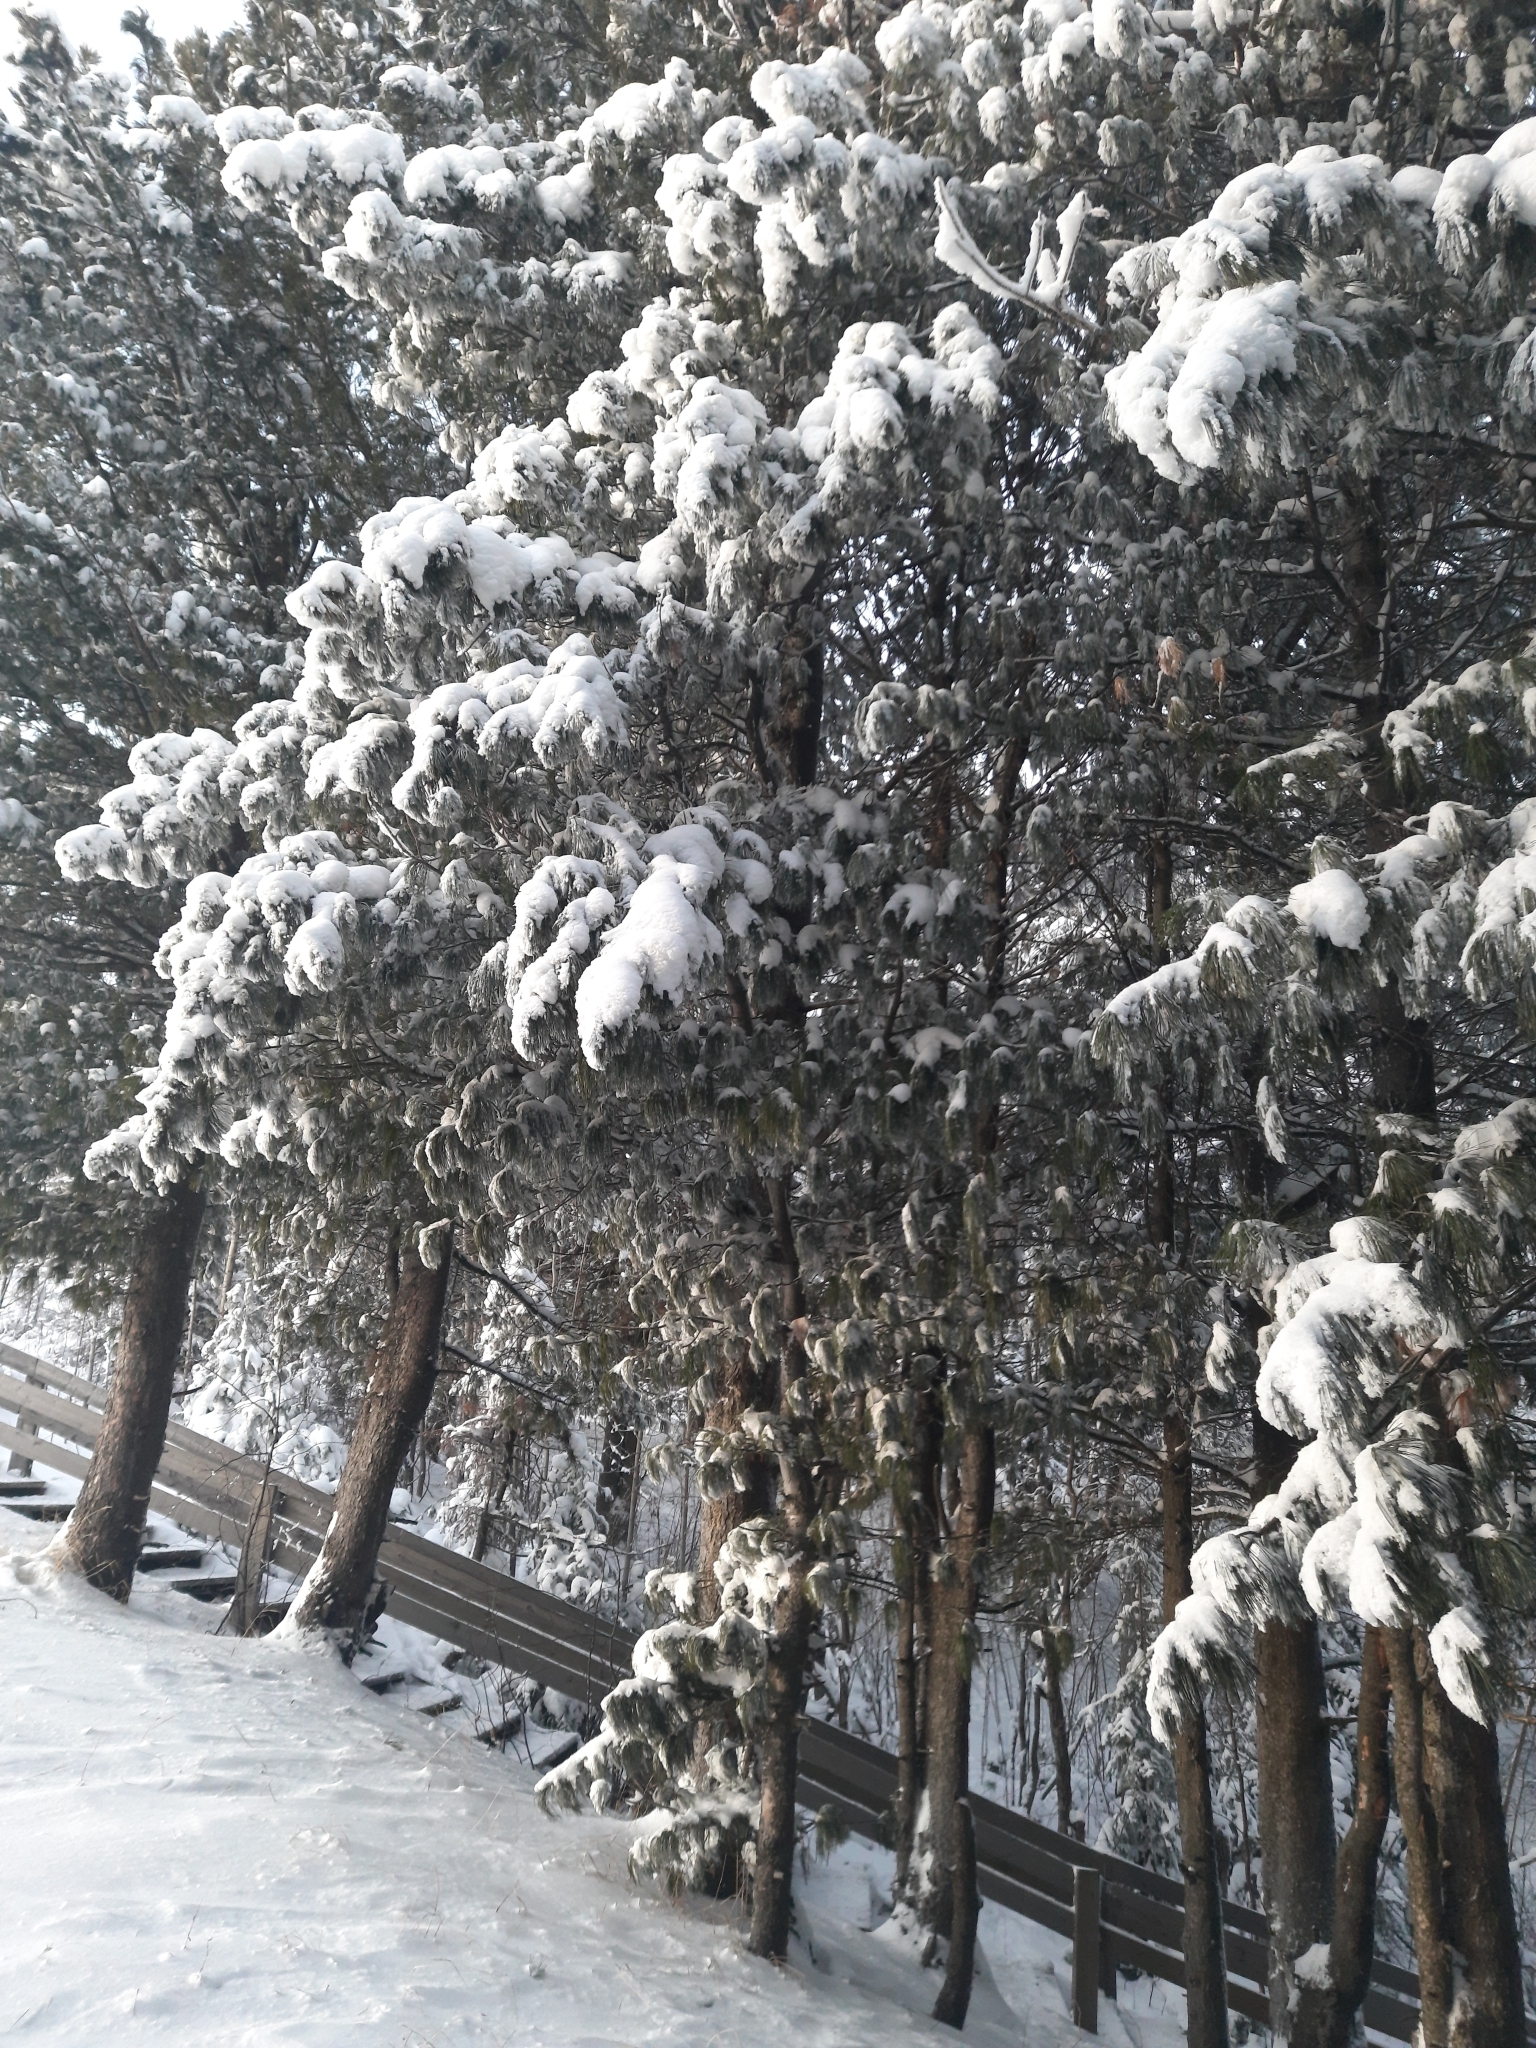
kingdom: Plantae
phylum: Tracheophyta
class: Pinopsida
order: Pinales
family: Pinaceae
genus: Pinus
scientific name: Pinus sibirica
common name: Siberian pine
